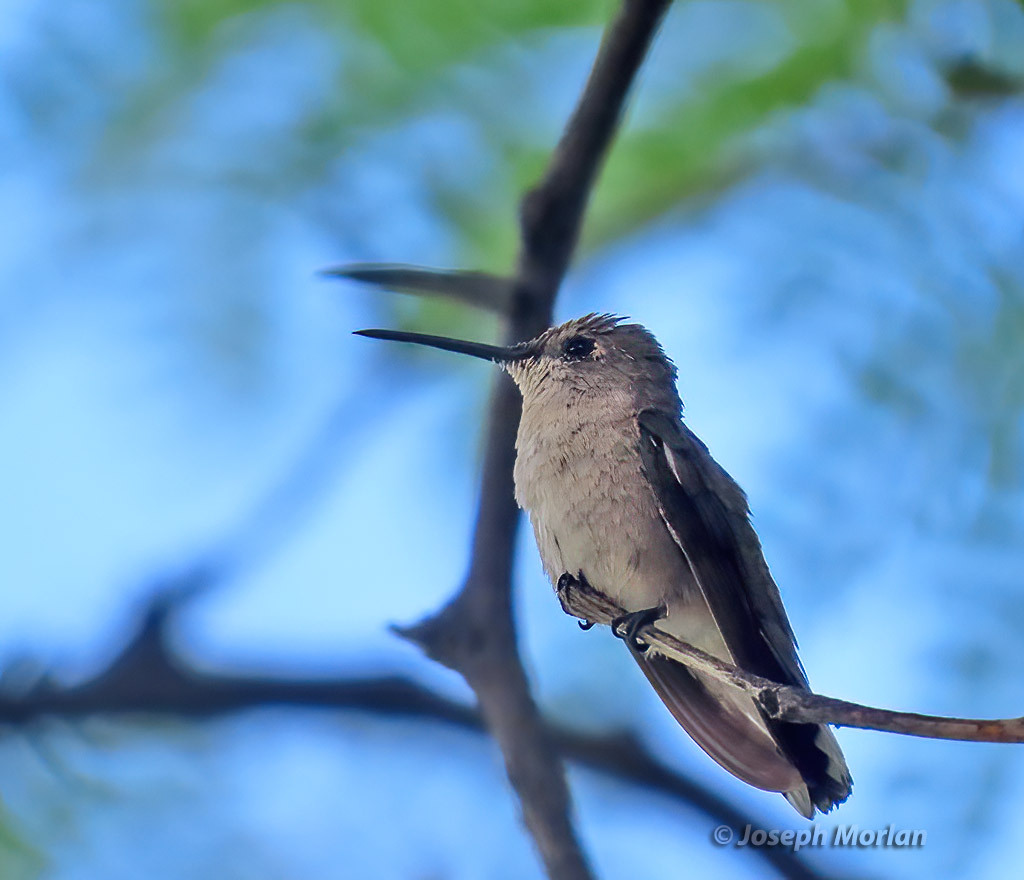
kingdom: Animalia
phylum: Chordata
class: Aves
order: Apodiformes
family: Trochilidae
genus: Archilochus
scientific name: Archilochus alexandri
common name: Black-chinned hummingbird
